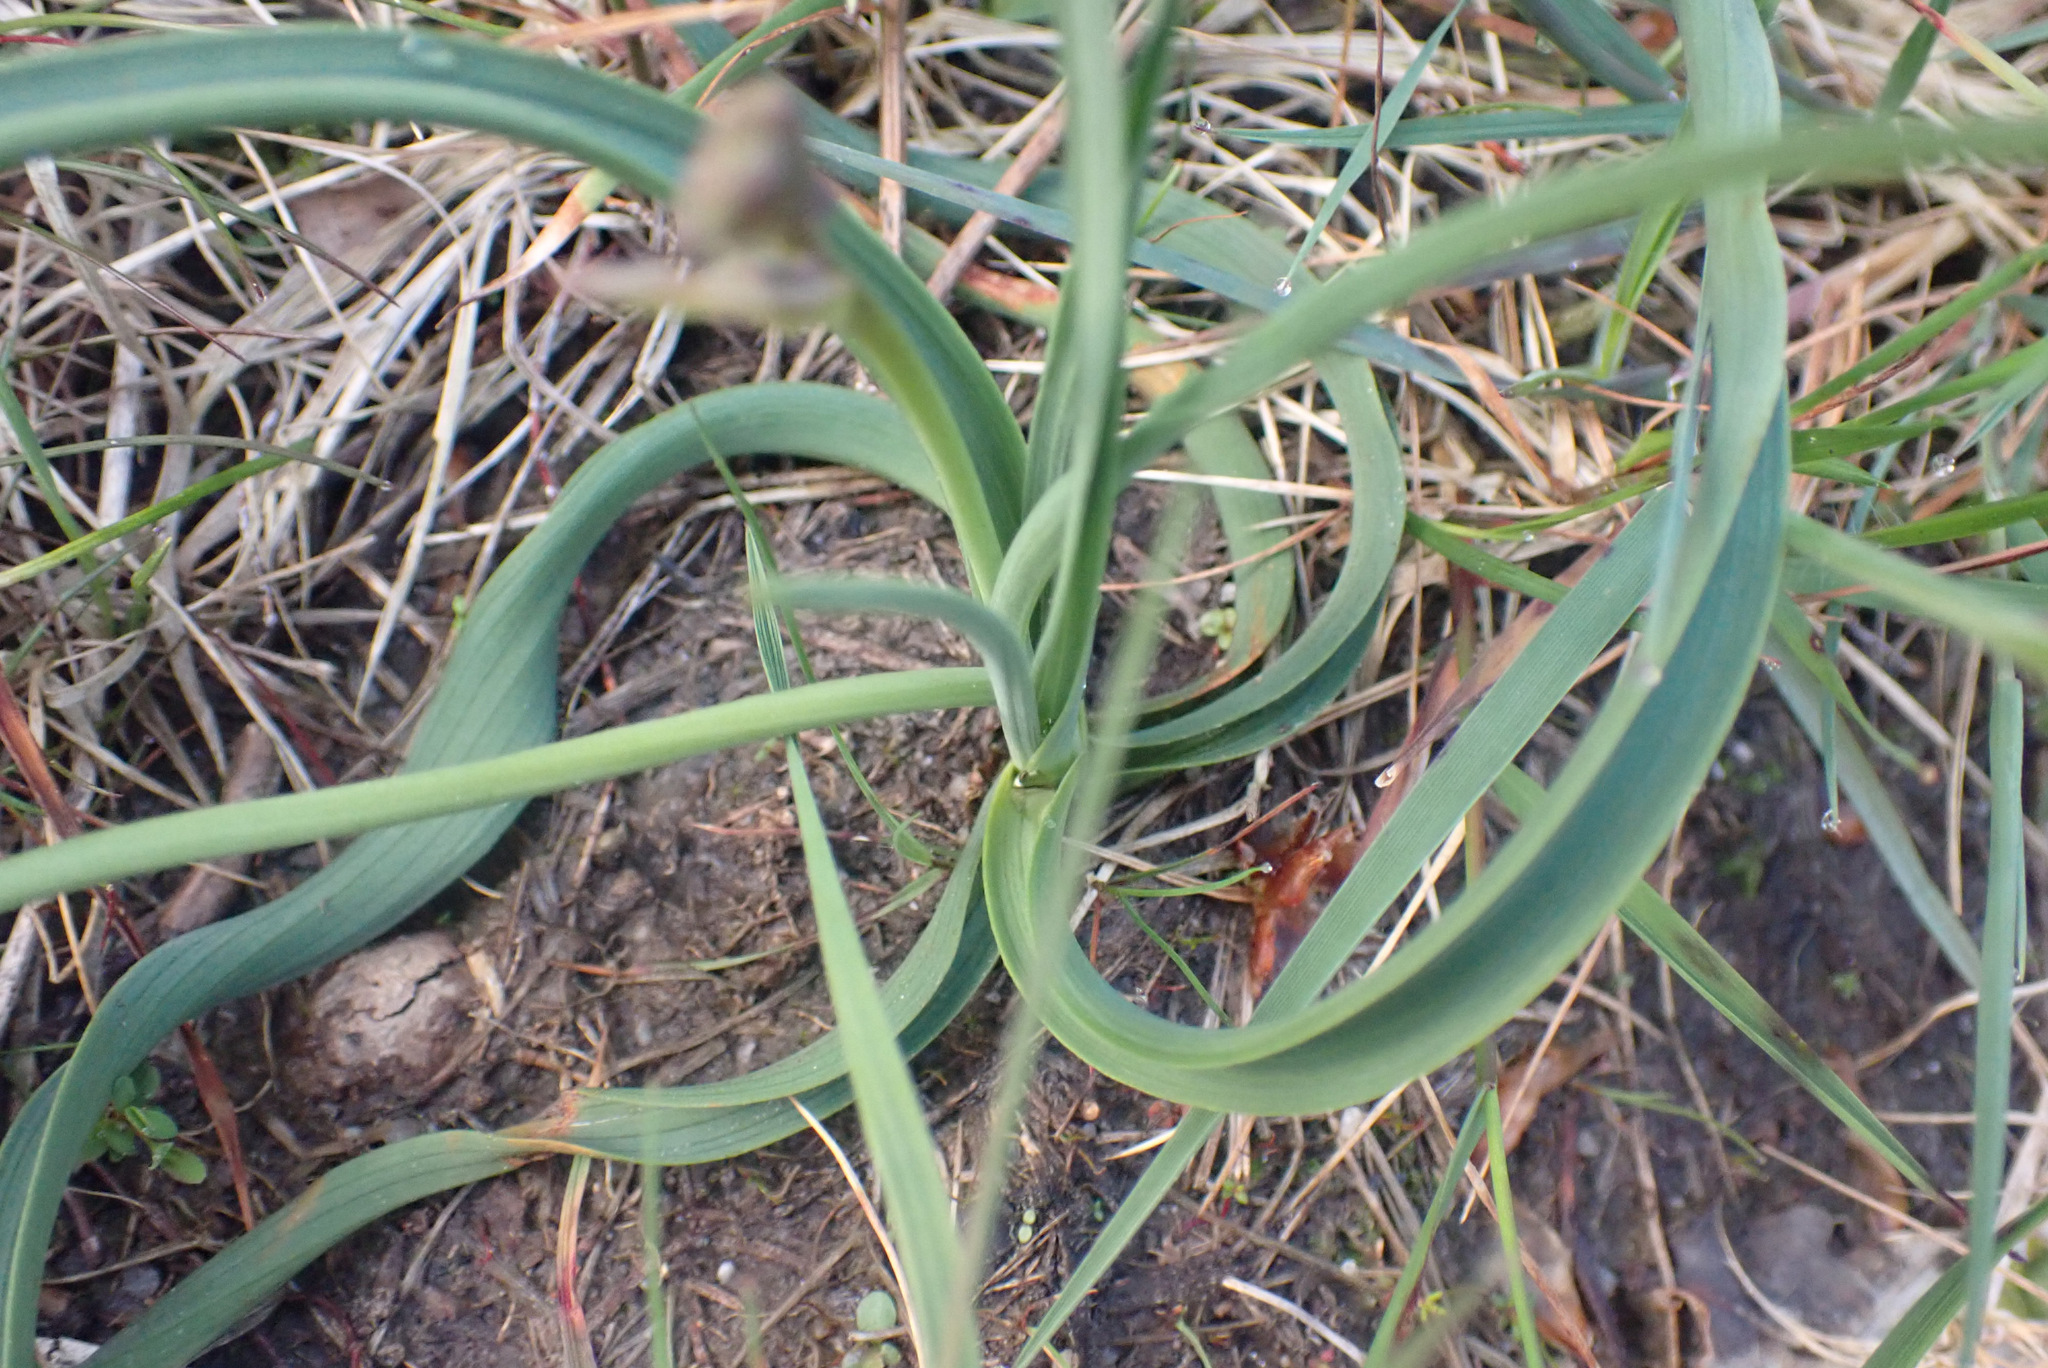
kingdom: Plantae
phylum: Tracheophyta
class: Liliopsida
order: Asparagales
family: Asphodelaceae
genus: Simethis
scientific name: Simethis mattiazzii
